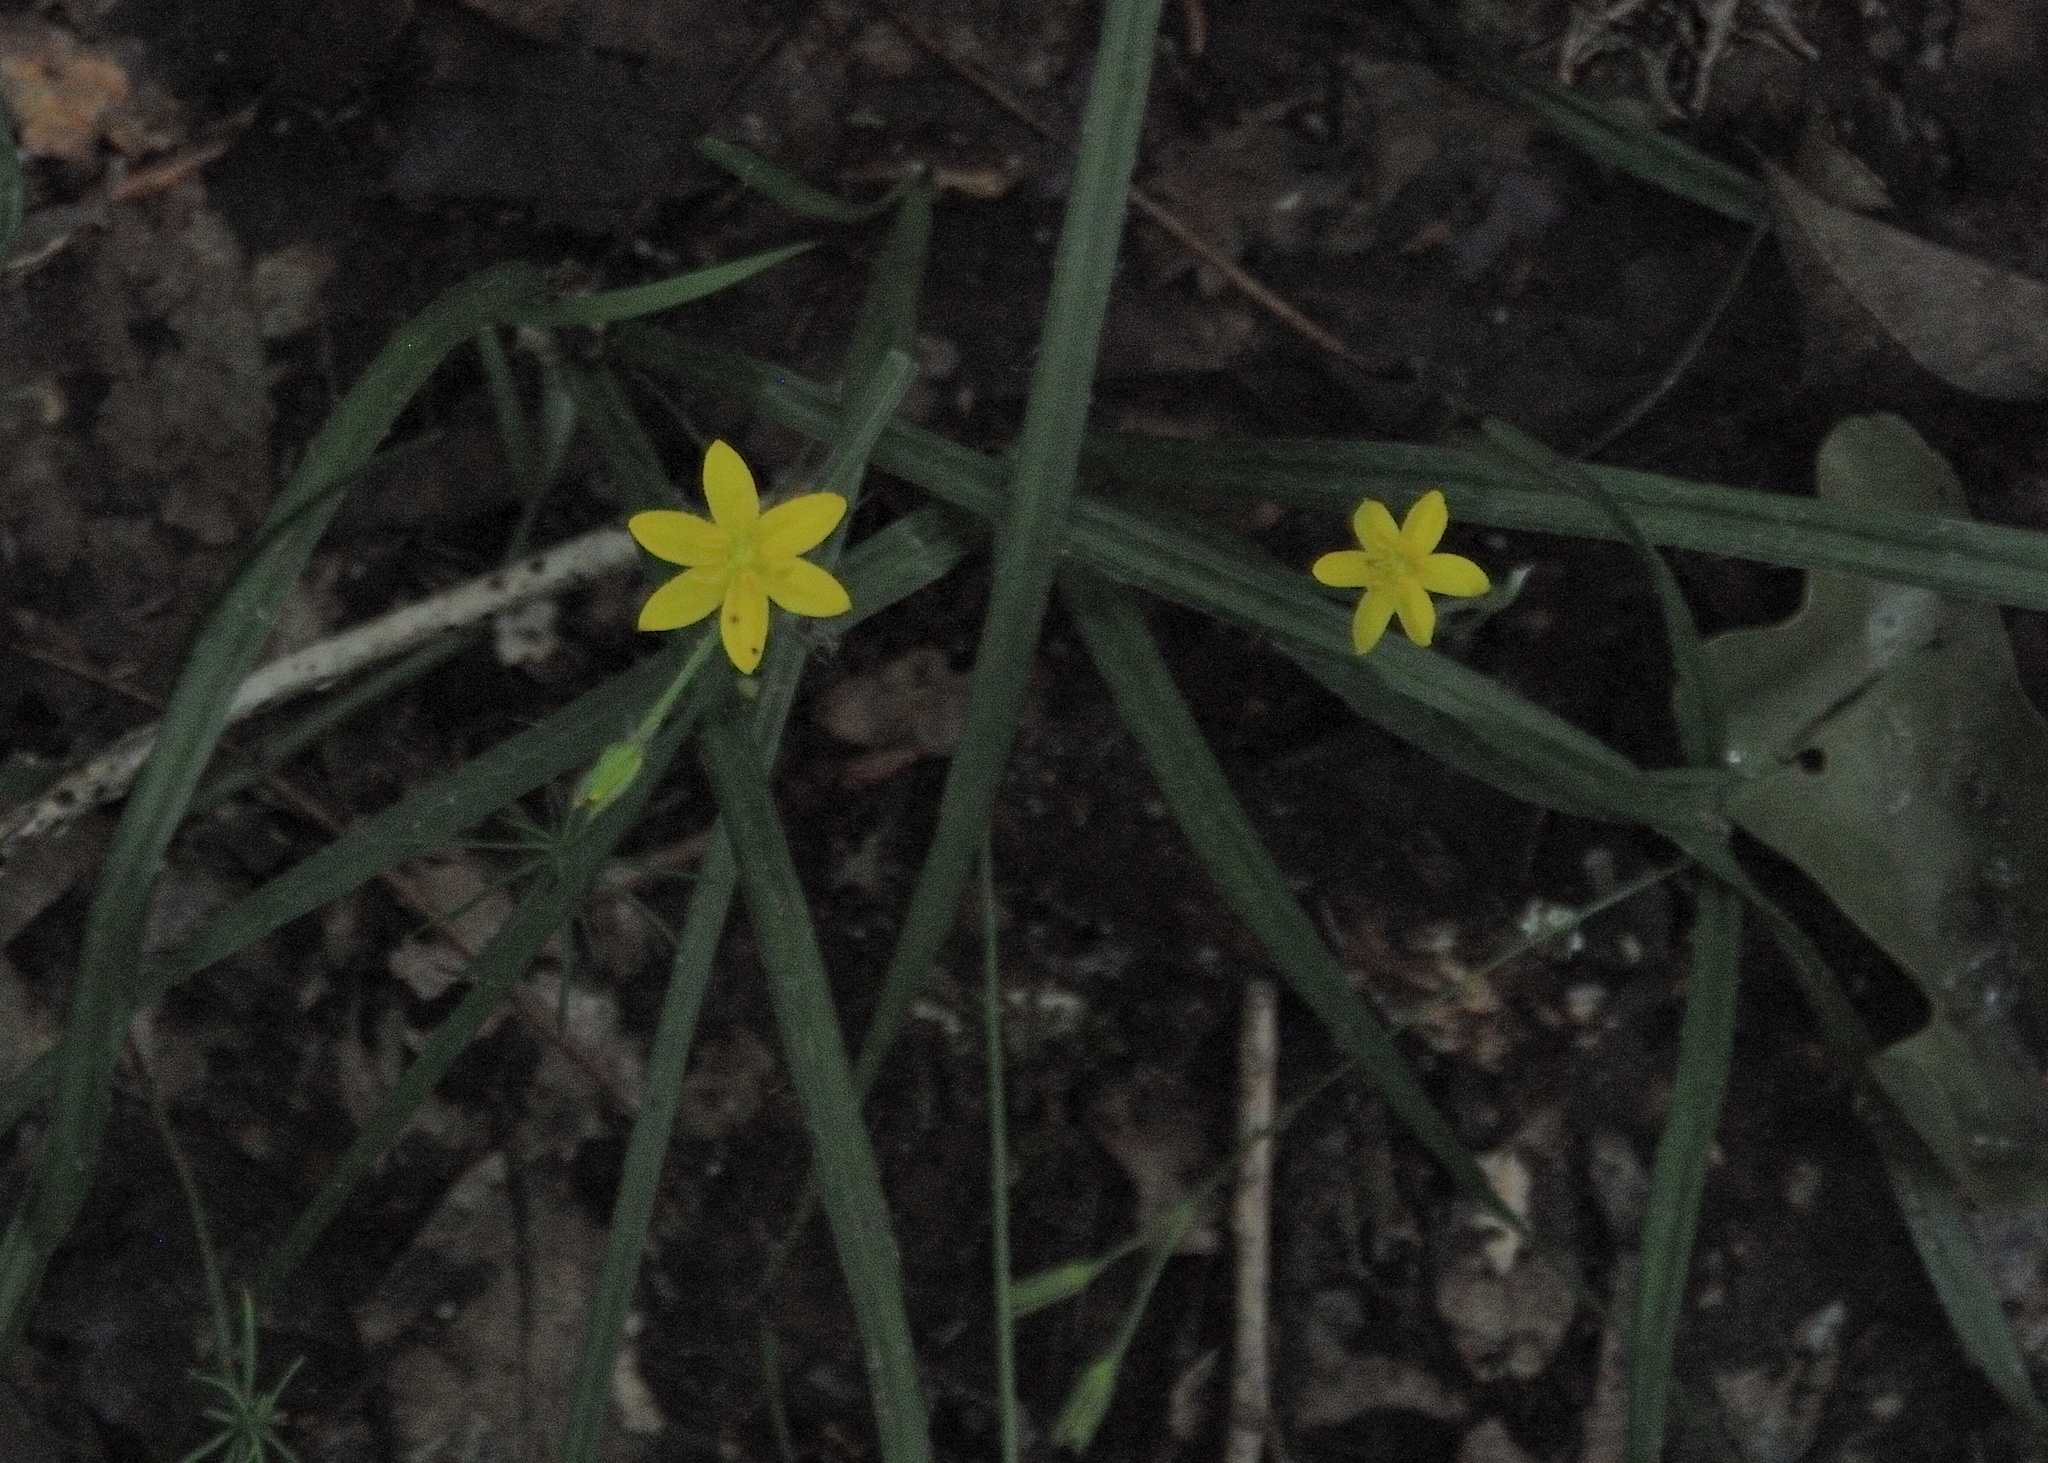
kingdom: Plantae
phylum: Tracheophyta
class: Liliopsida
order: Asparagales
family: Hypoxidaceae
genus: Hypoxis
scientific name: Hypoxis hirsuta
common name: Common goldstar
